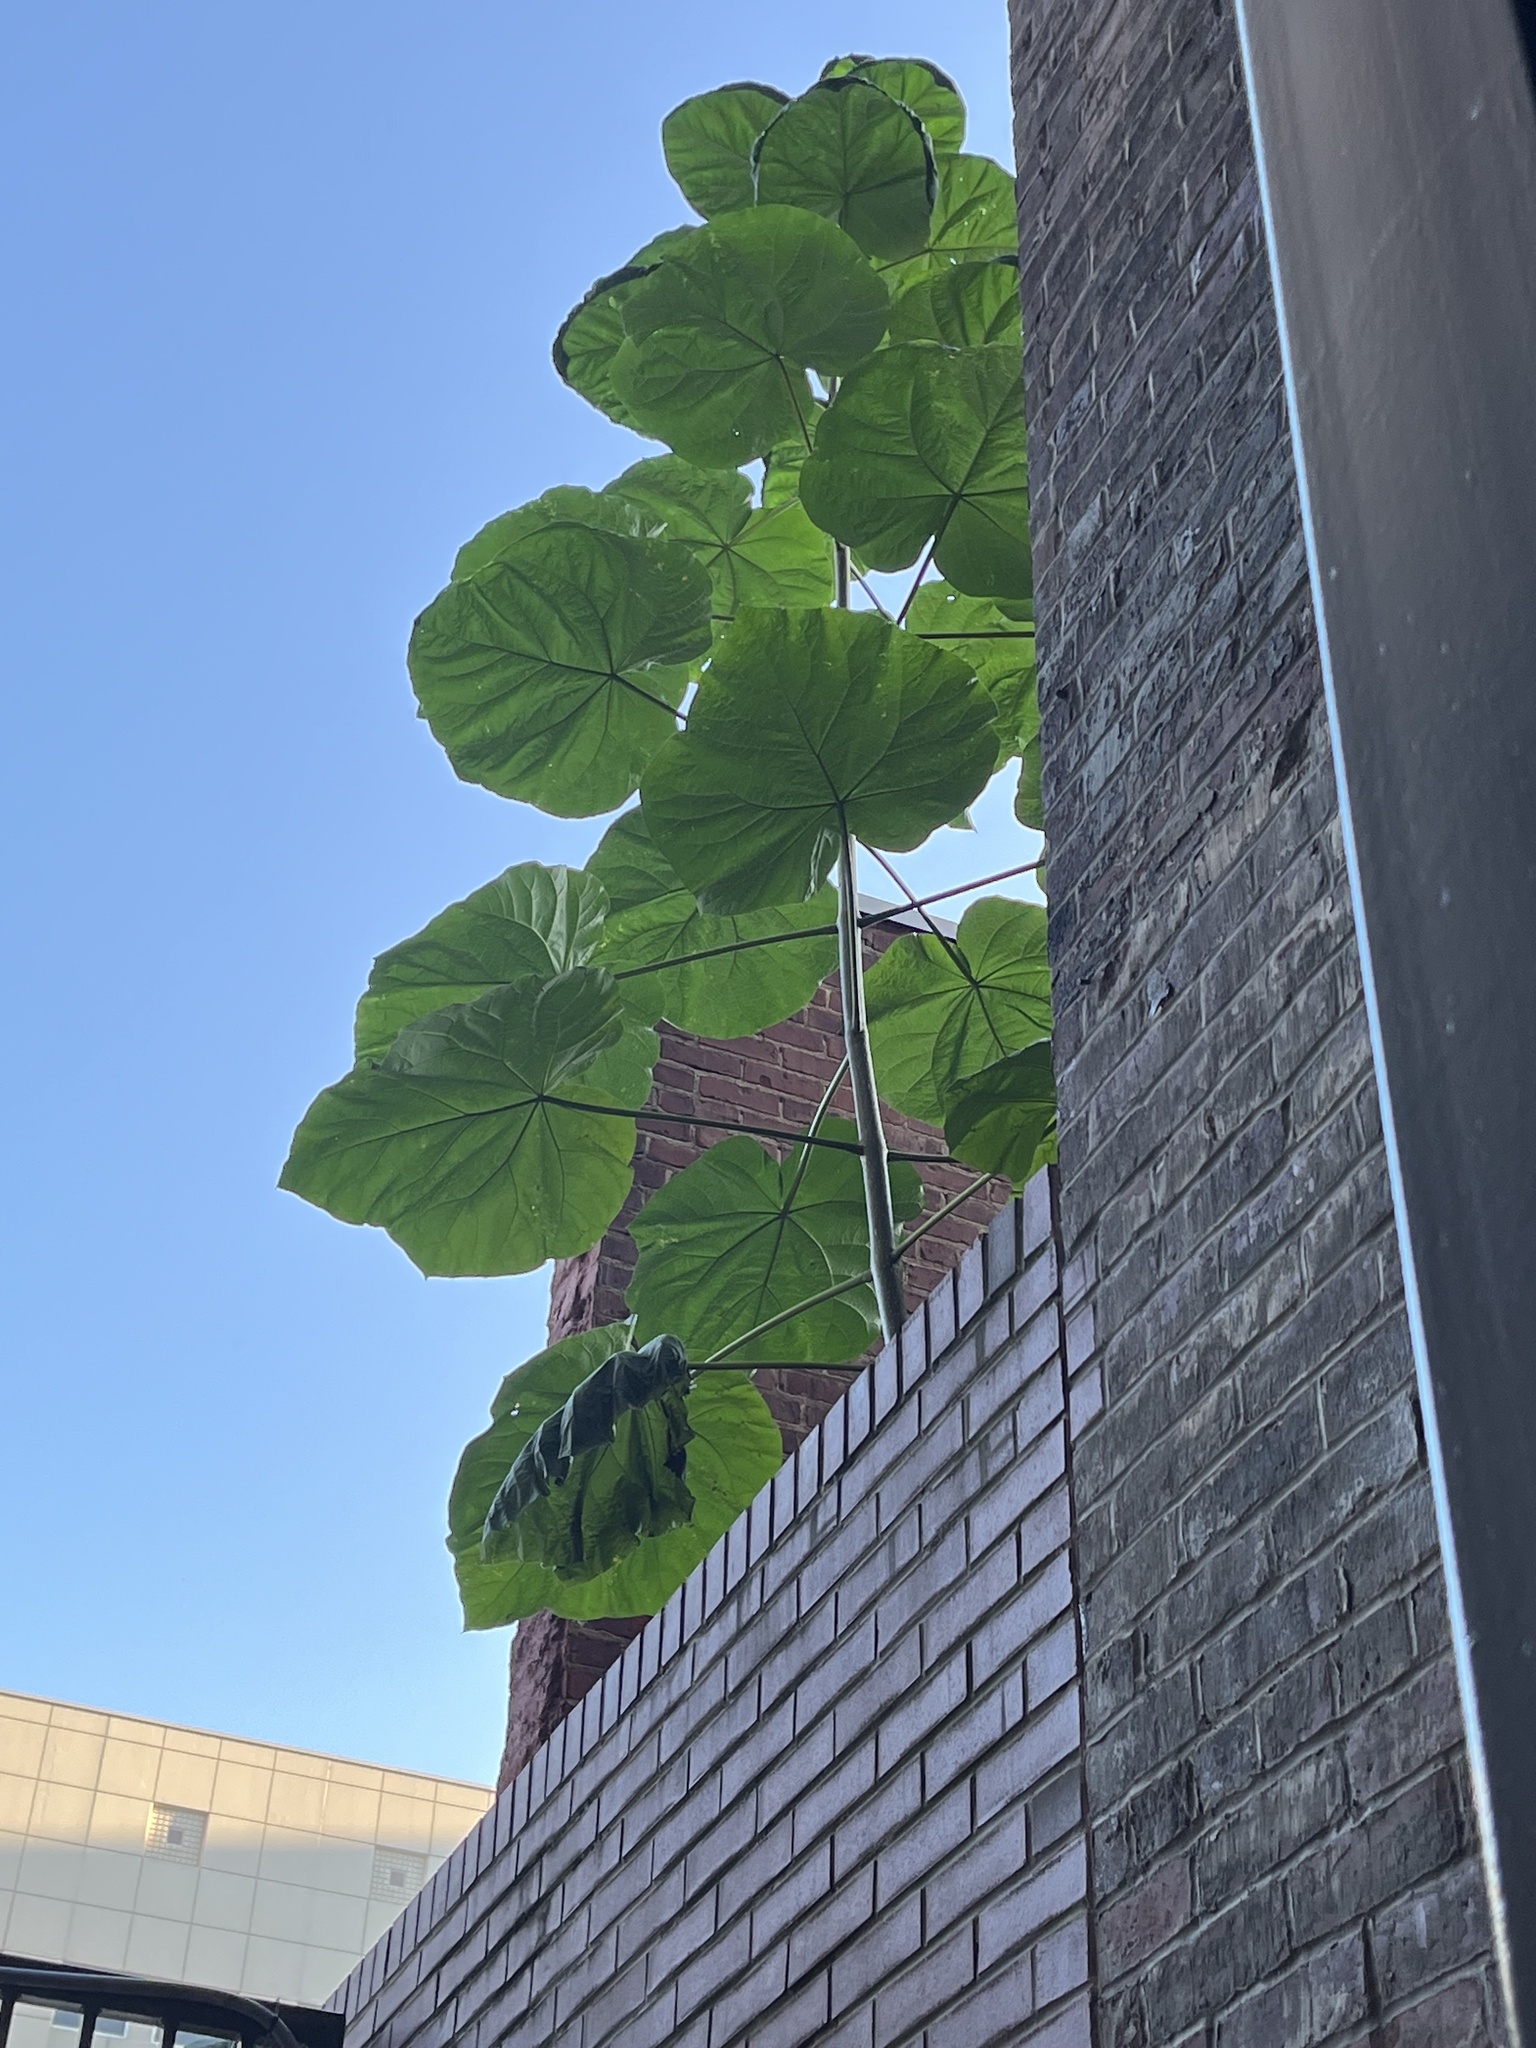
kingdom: Plantae
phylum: Tracheophyta
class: Magnoliopsida
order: Lamiales
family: Paulowniaceae
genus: Paulownia
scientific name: Paulownia tomentosa
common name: Foxglove-tree
